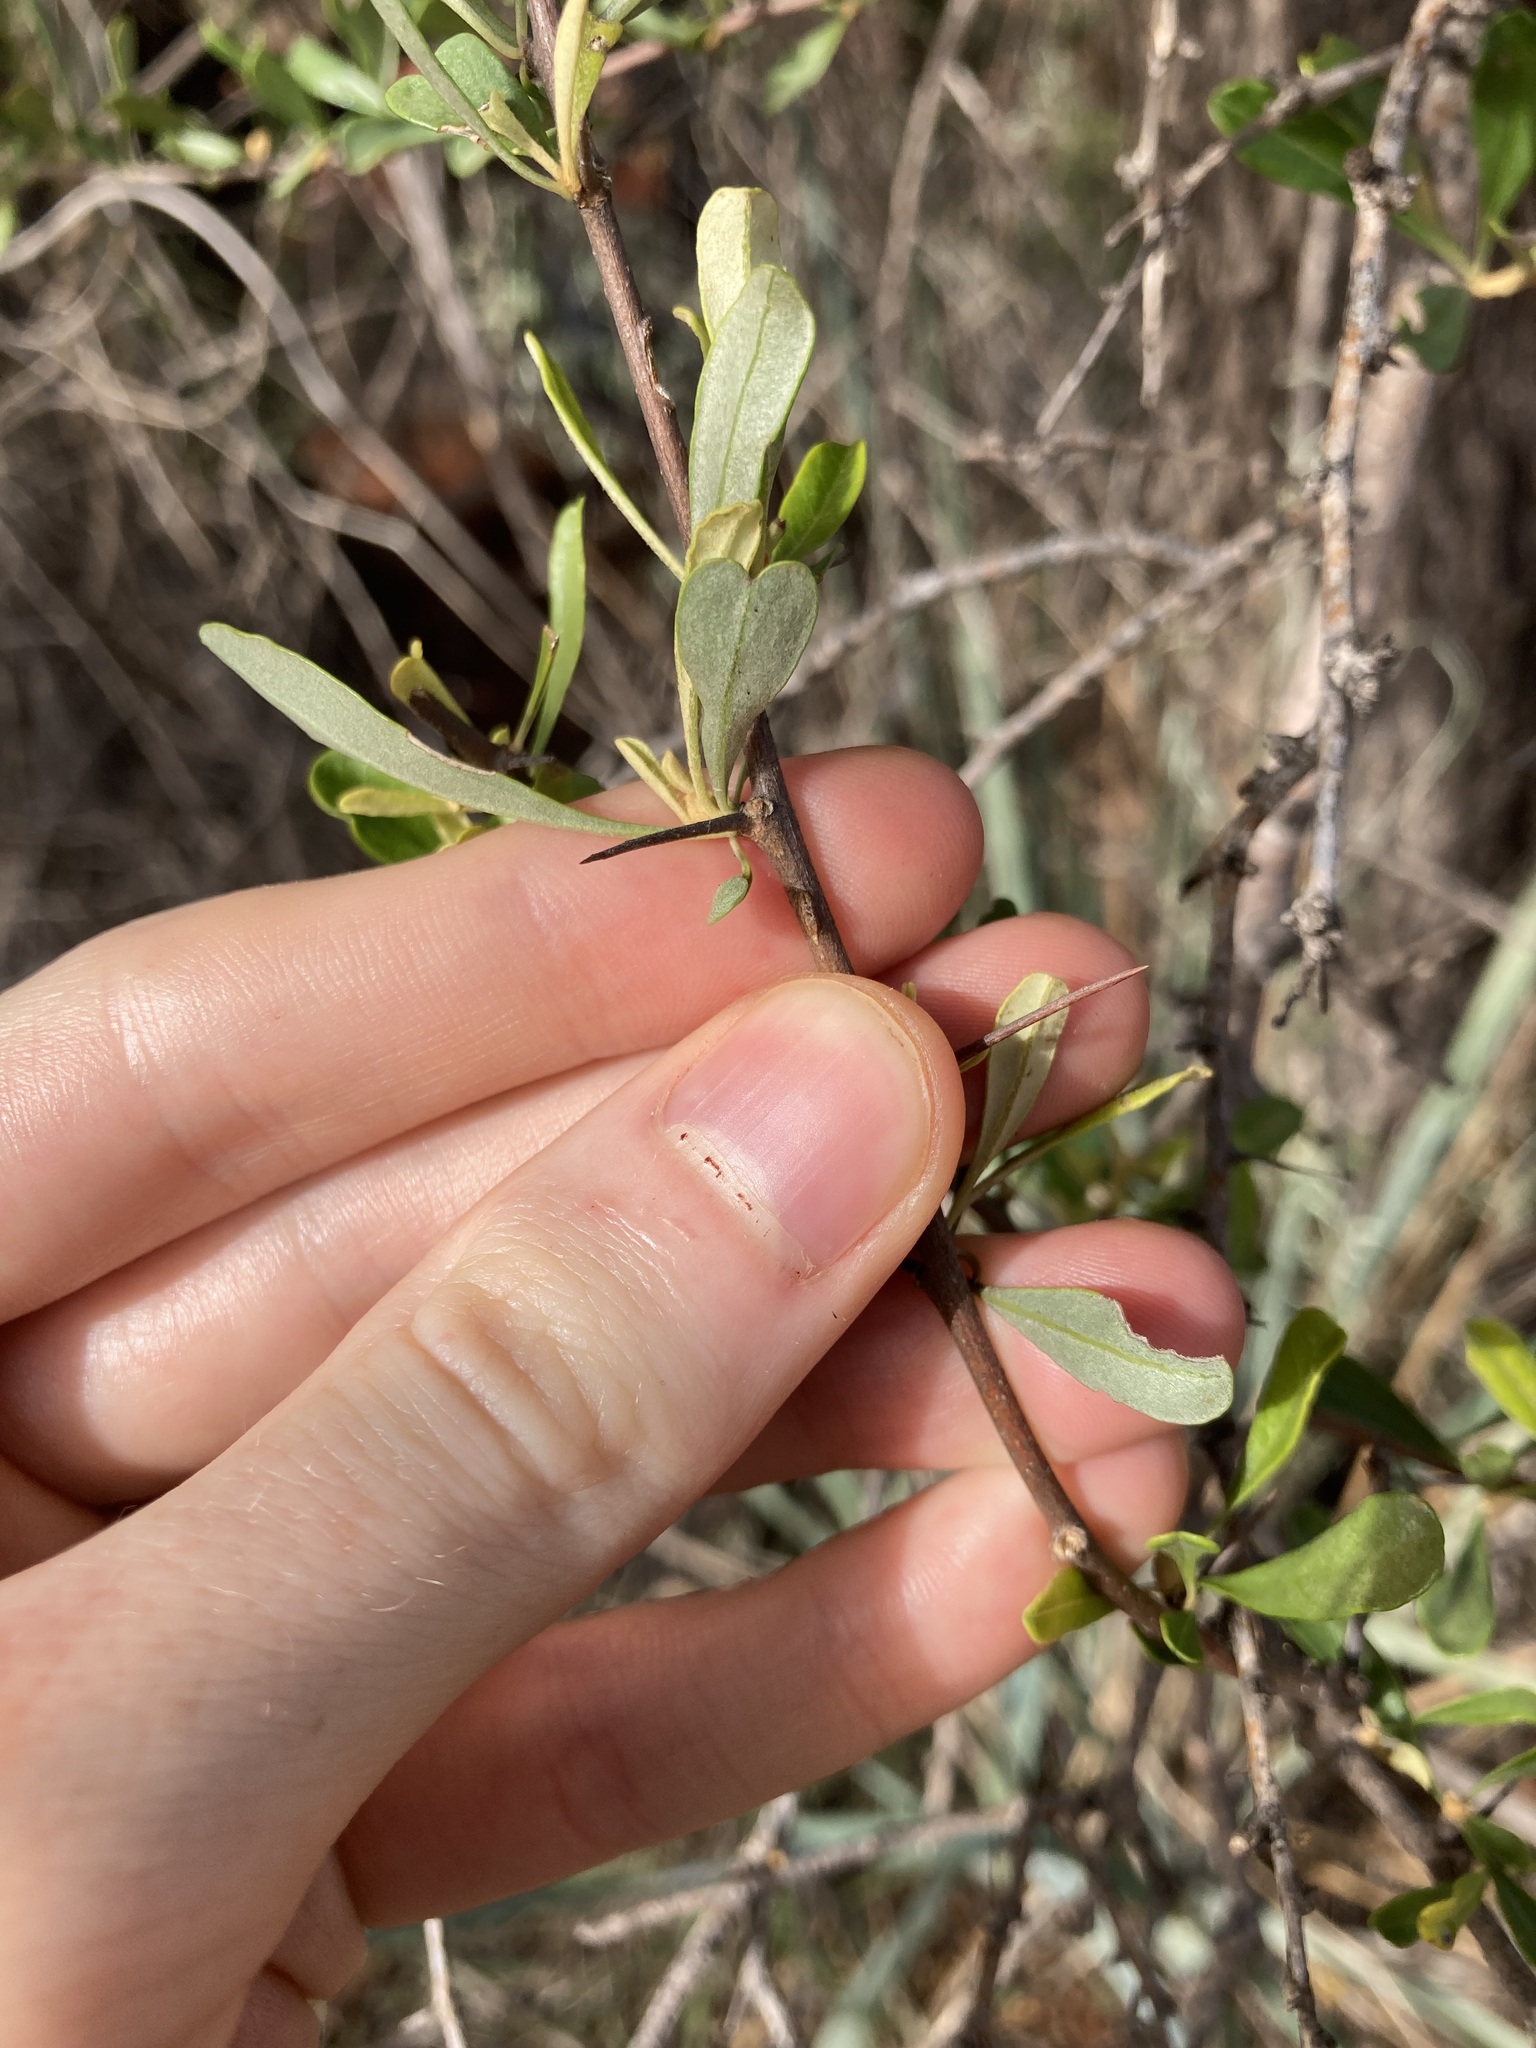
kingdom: Plantae
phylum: Tracheophyta
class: Magnoliopsida
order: Apiales
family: Pittosporaceae
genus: Bursaria
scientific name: Bursaria occidentalis
